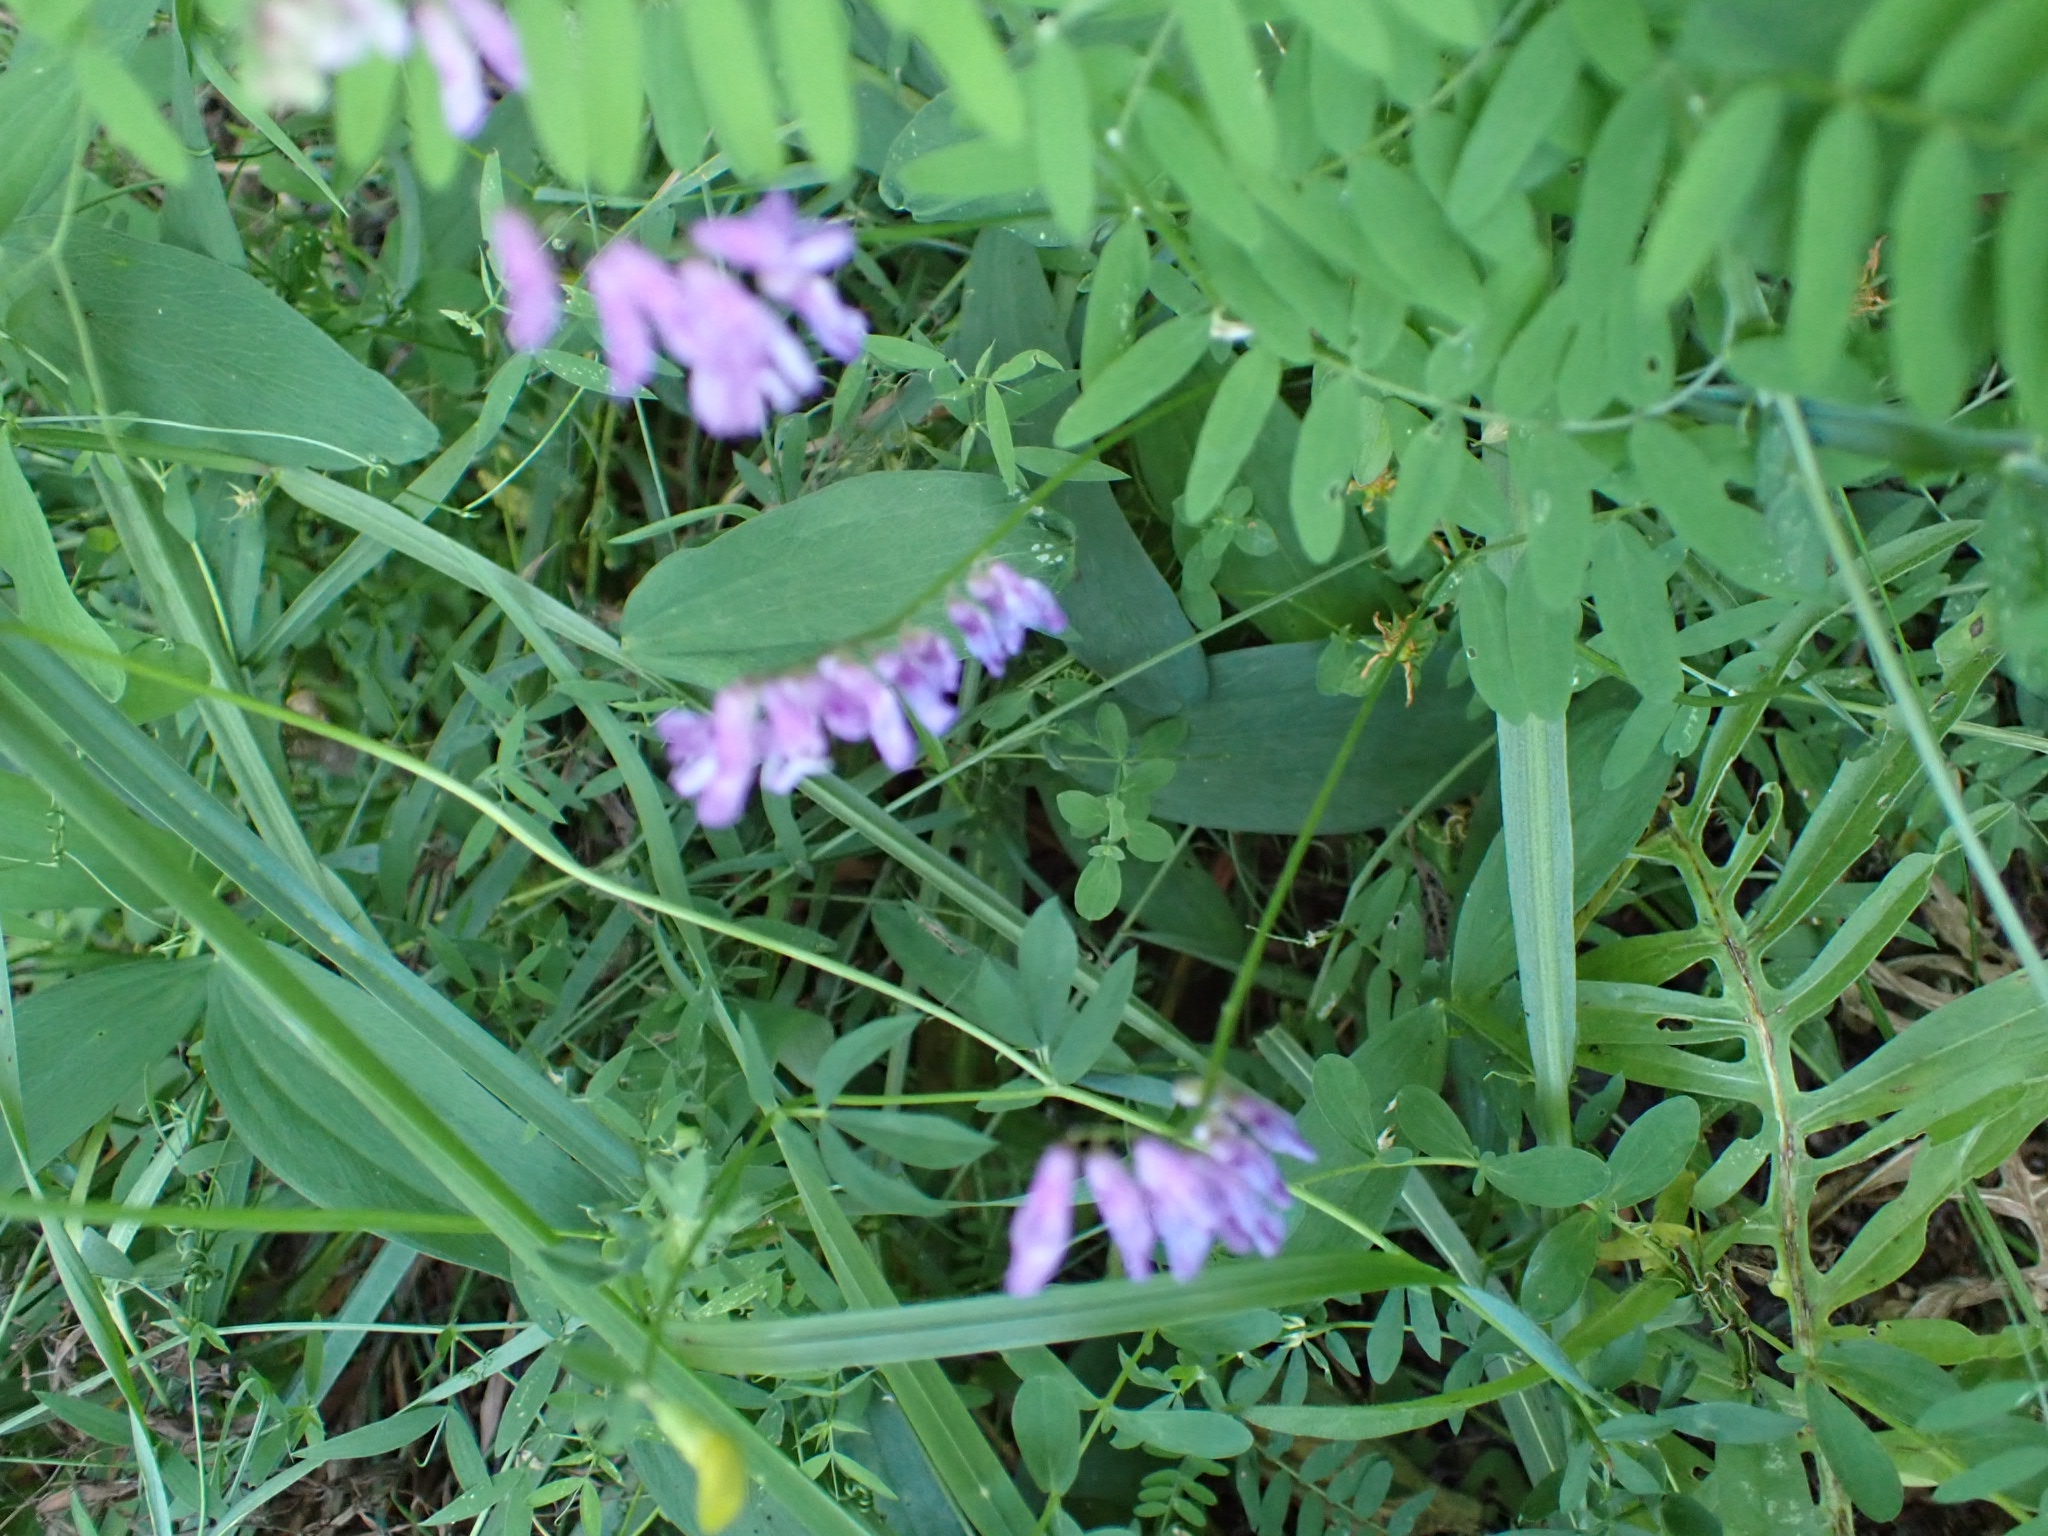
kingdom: Plantae
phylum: Tracheophyta
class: Magnoliopsida
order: Fabales
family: Fabaceae
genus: Vicia
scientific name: Vicia cracca
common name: Bird vetch
